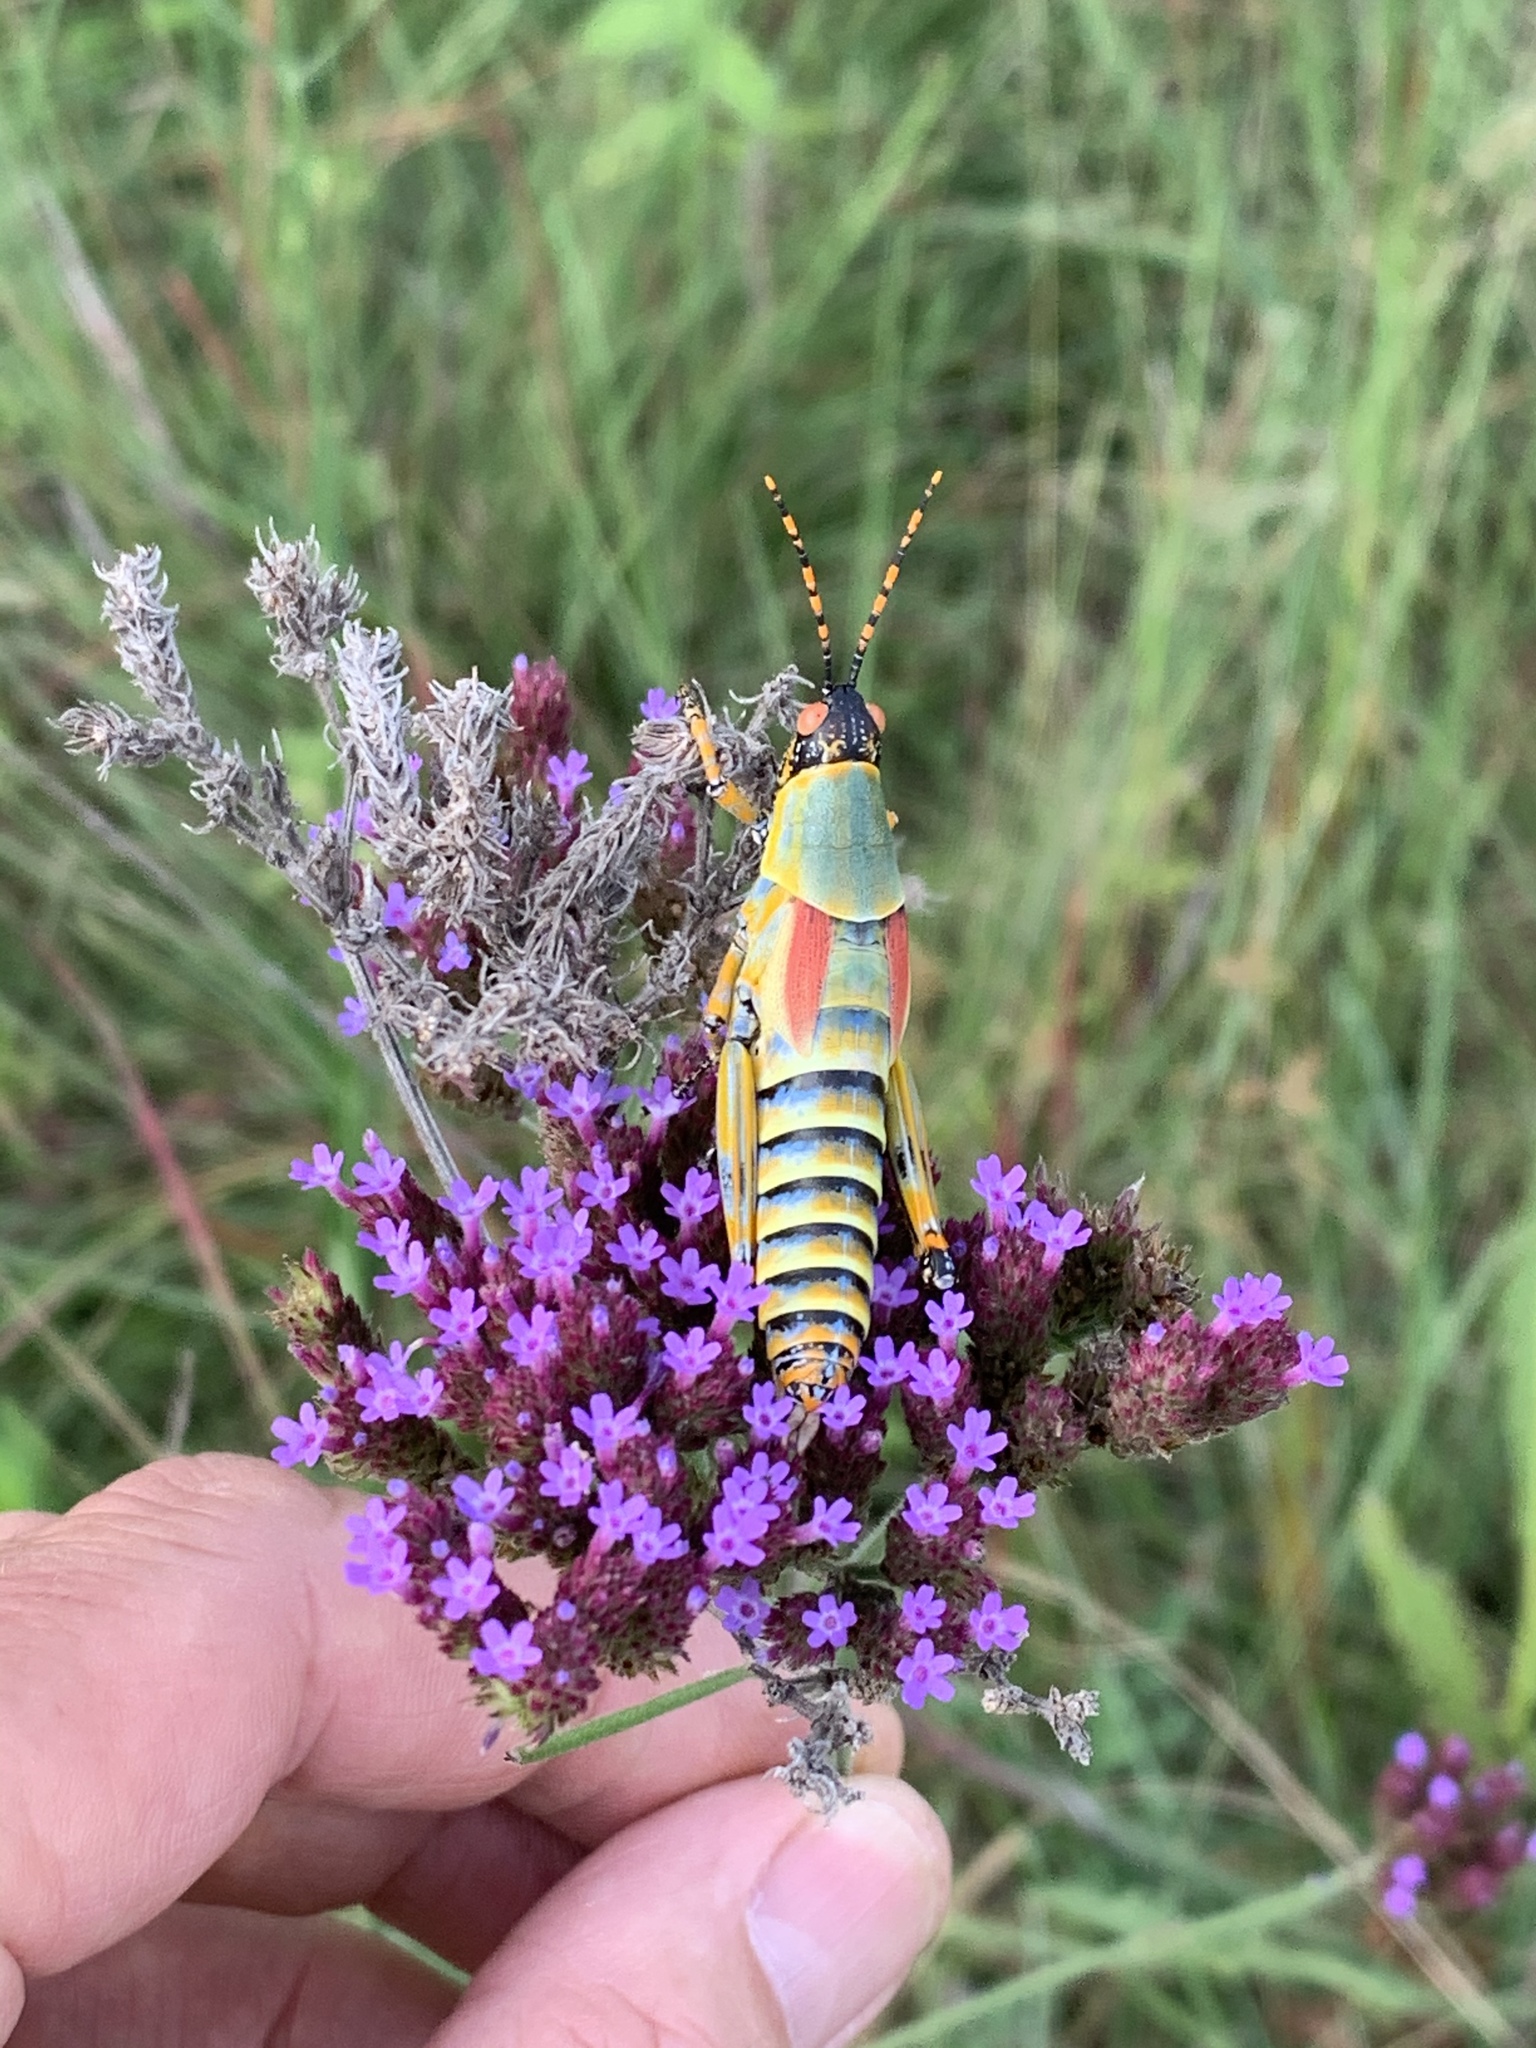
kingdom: Animalia
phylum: Arthropoda
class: Insecta
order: Orthoptera
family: Pyrgomorphidae
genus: Zonocerus
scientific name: Zonocerus elegans
